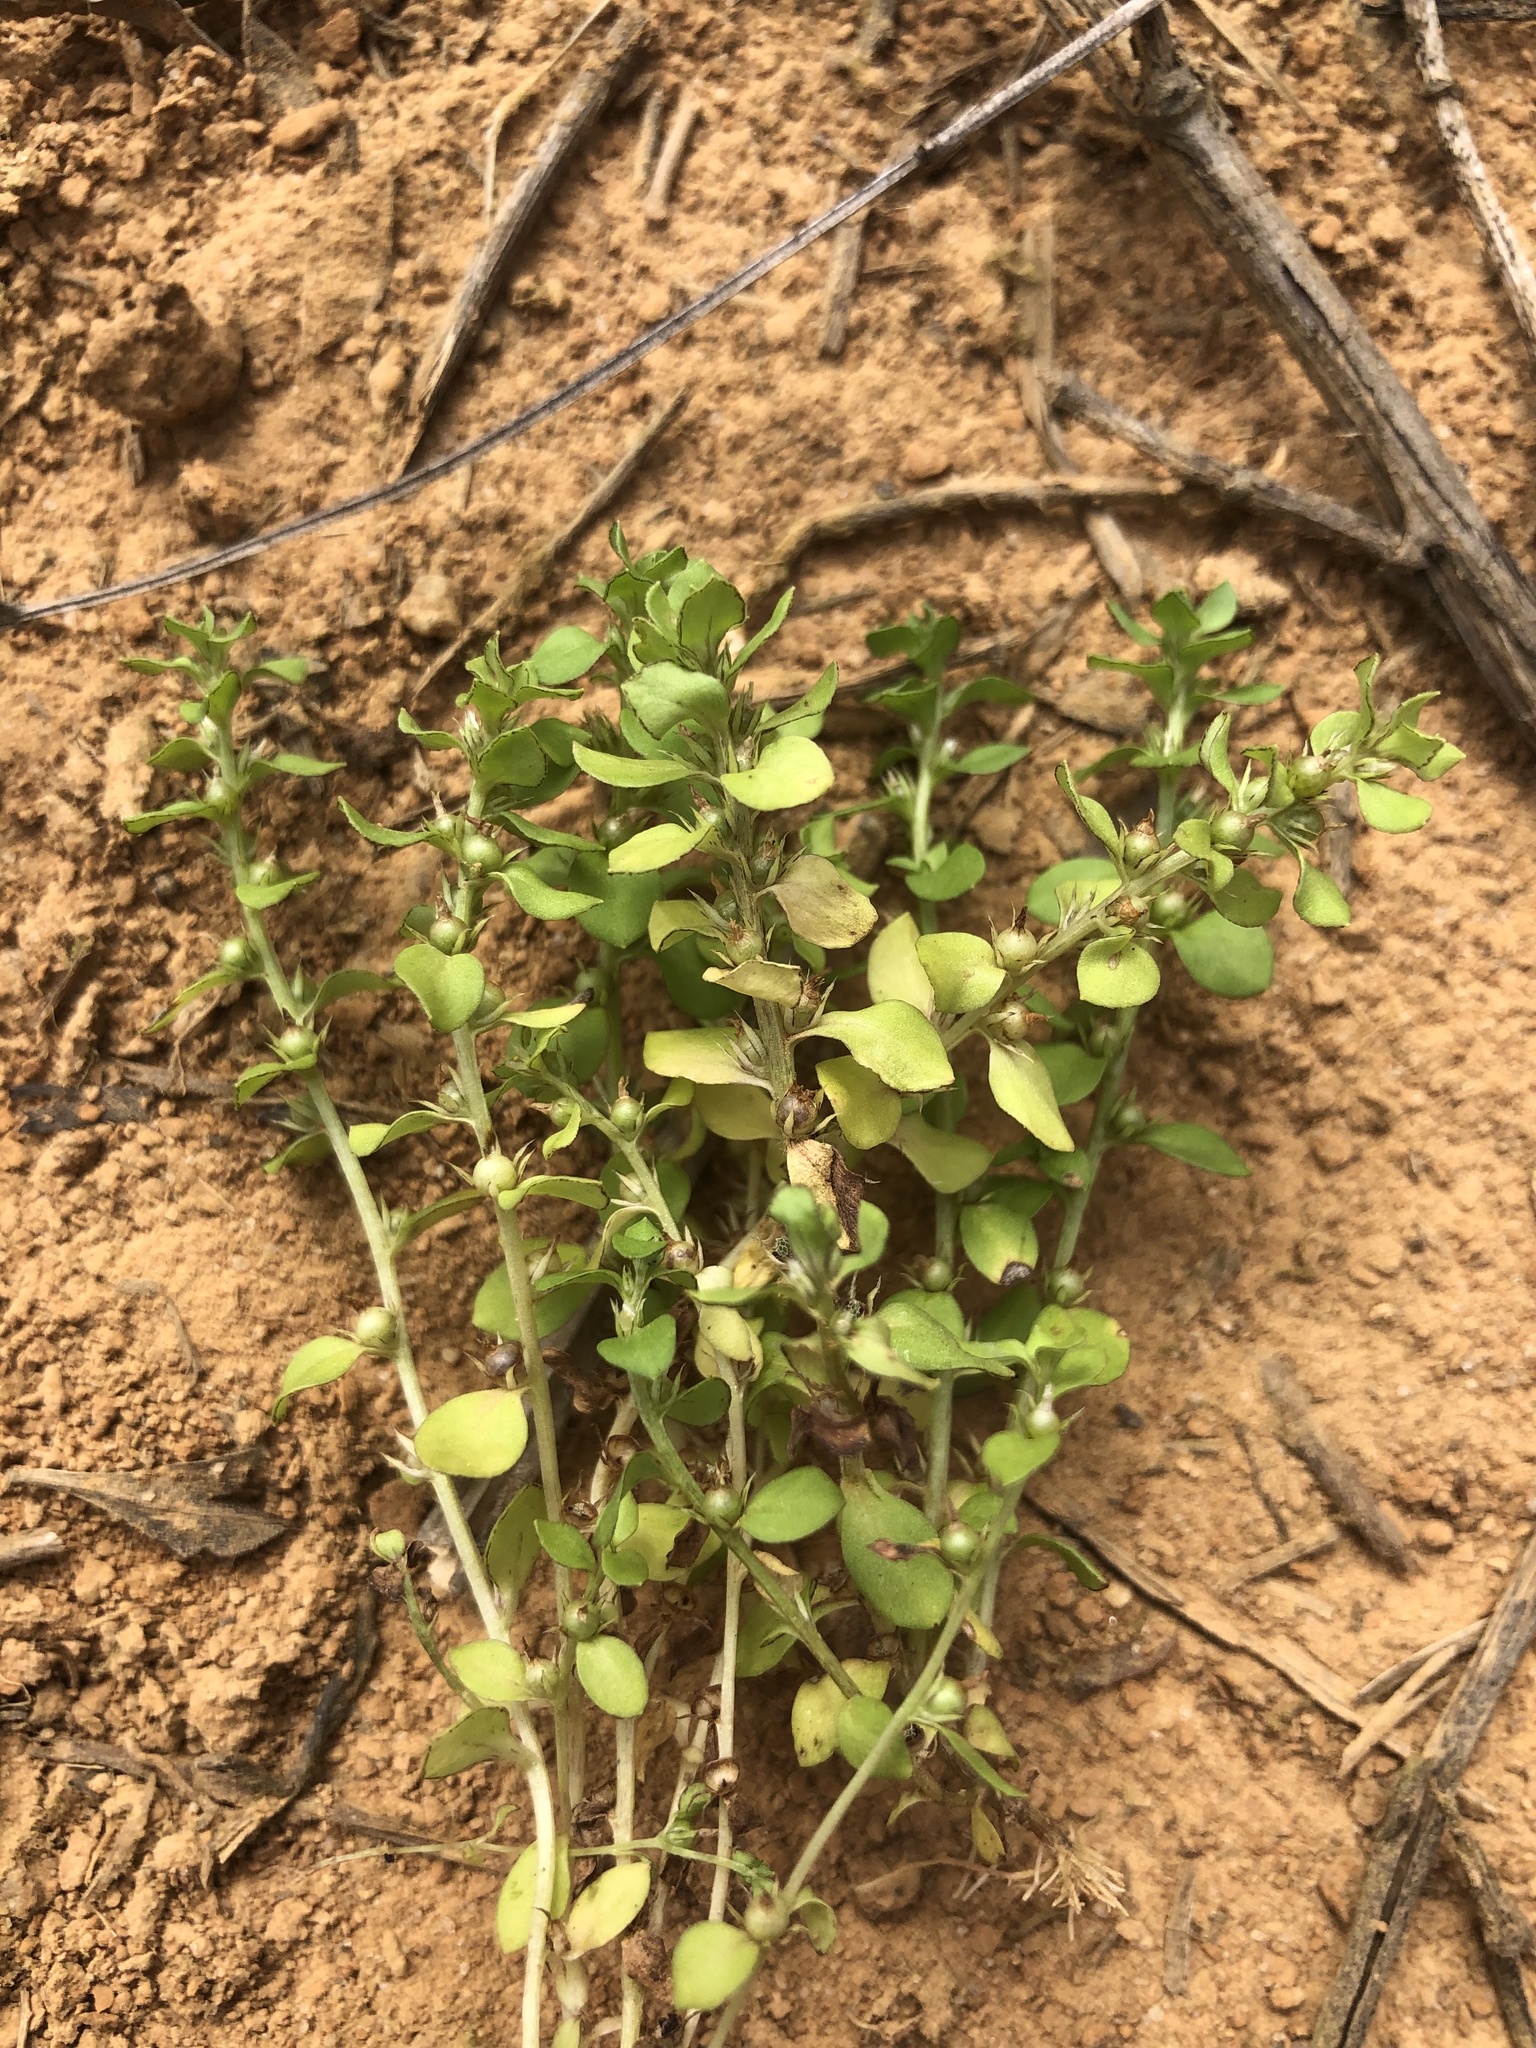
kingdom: Plantae
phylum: Tracheophyta
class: Magnoliopsida
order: Ericales
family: Primulaceae
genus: Lysimachia
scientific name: Lysimachia minima
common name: Chaffweed
